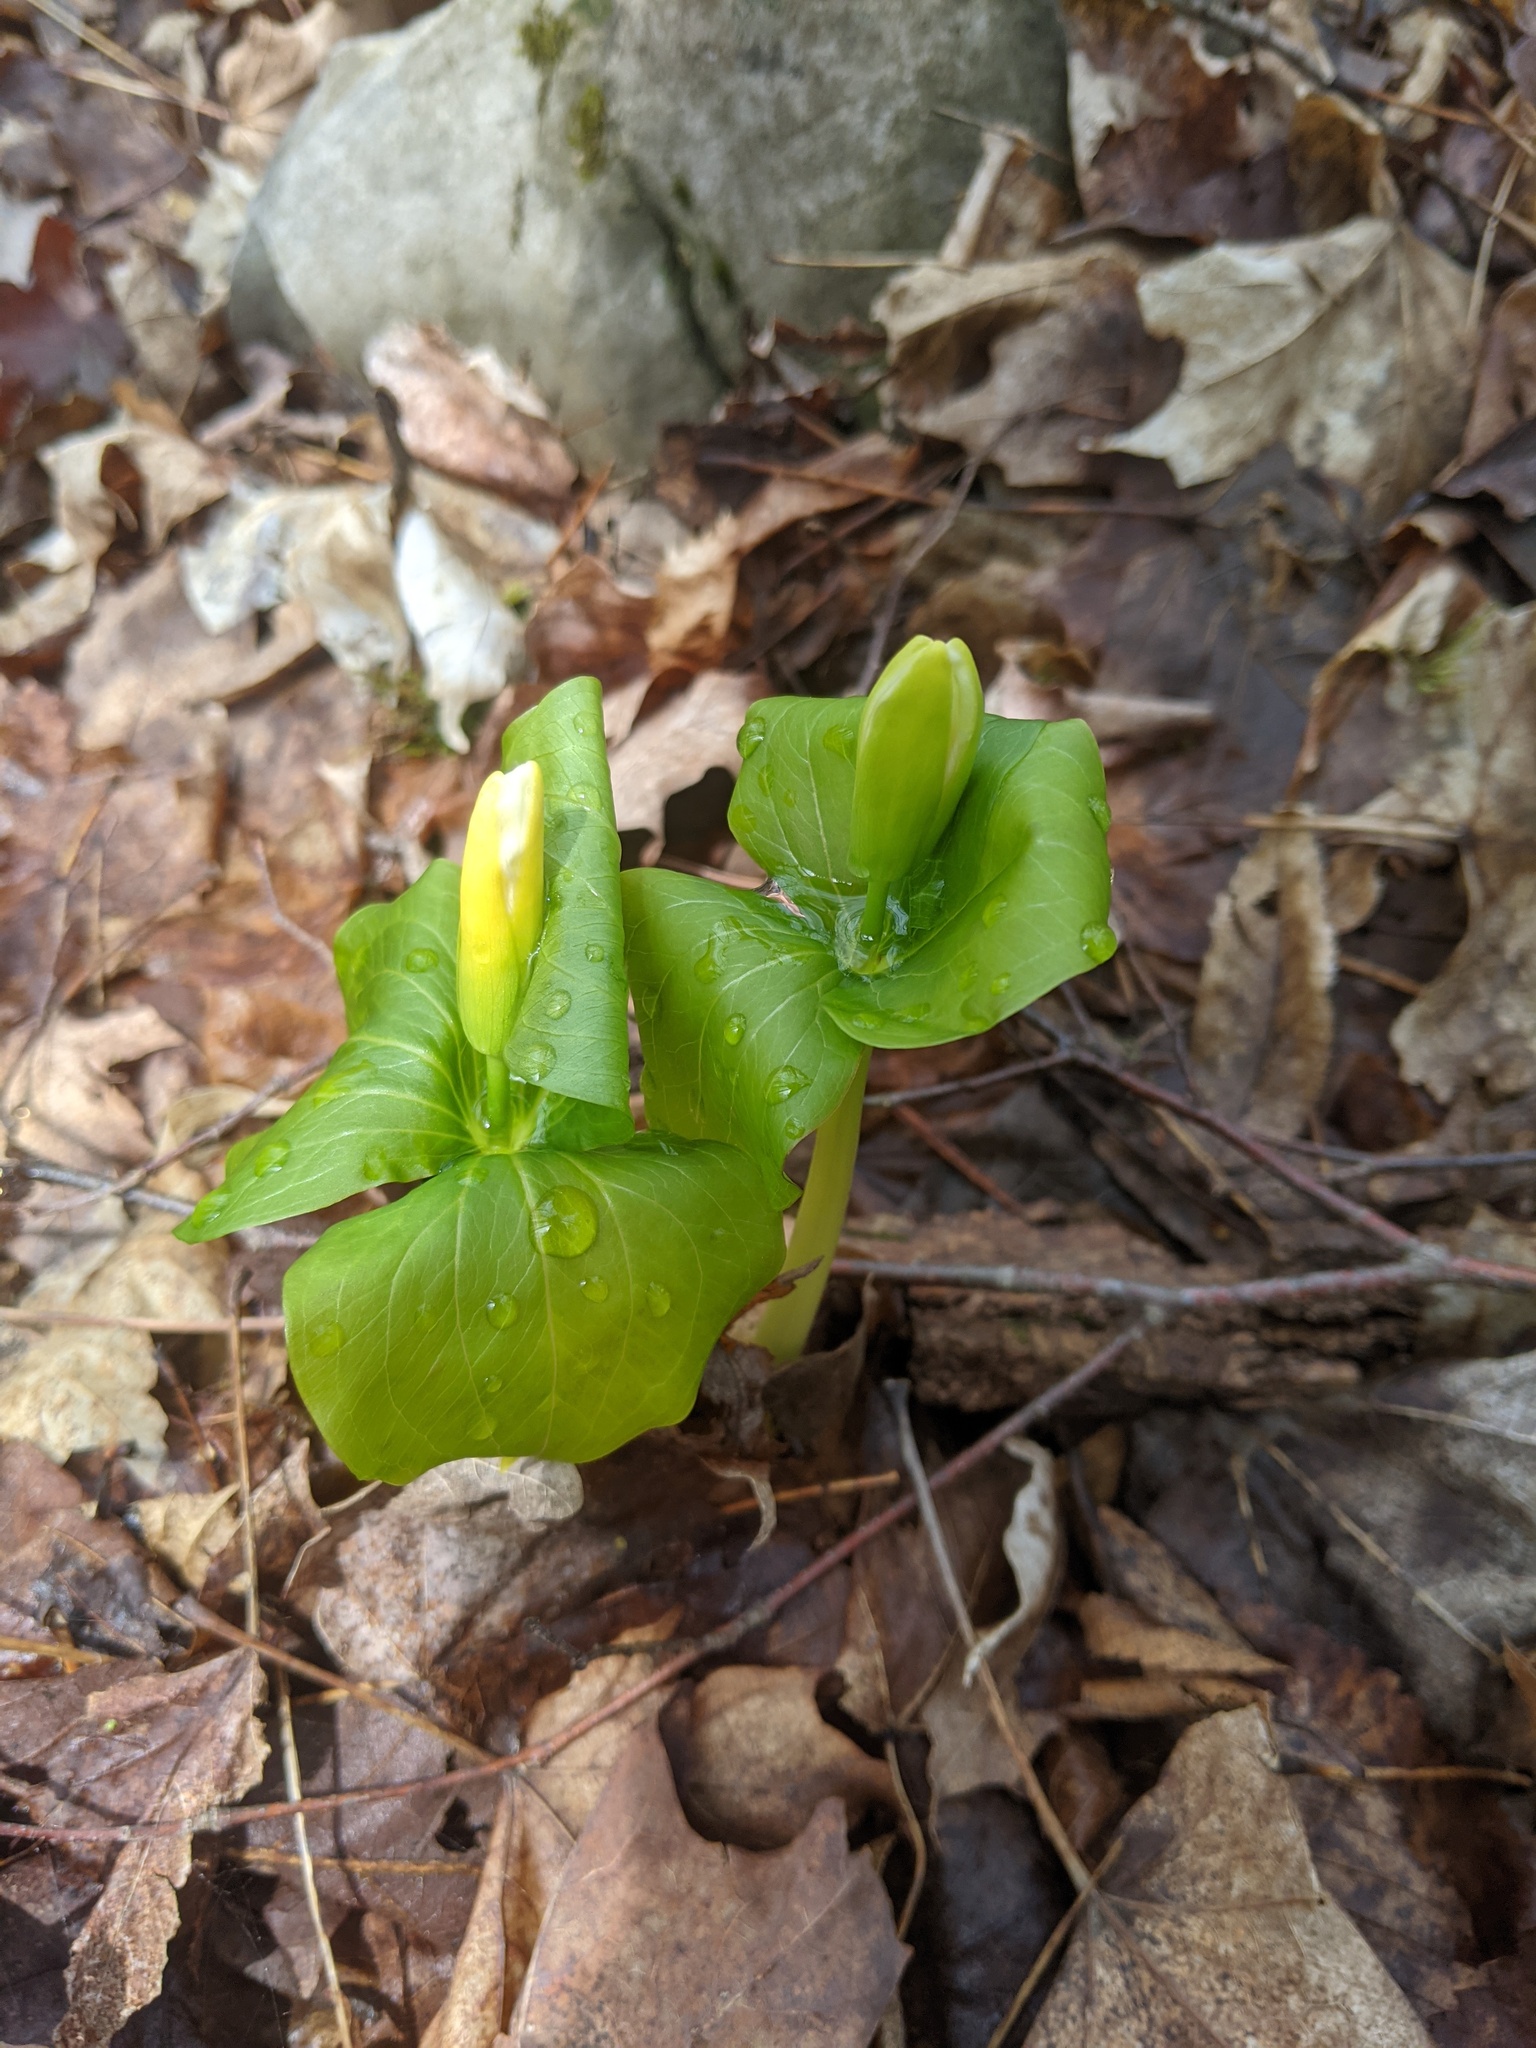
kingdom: Plantae
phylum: Tracheophyta
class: Liliopsida
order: Liliales
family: Melanthiaceae
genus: Trillium
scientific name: Trillium grandiflorum
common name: Great white trillium
